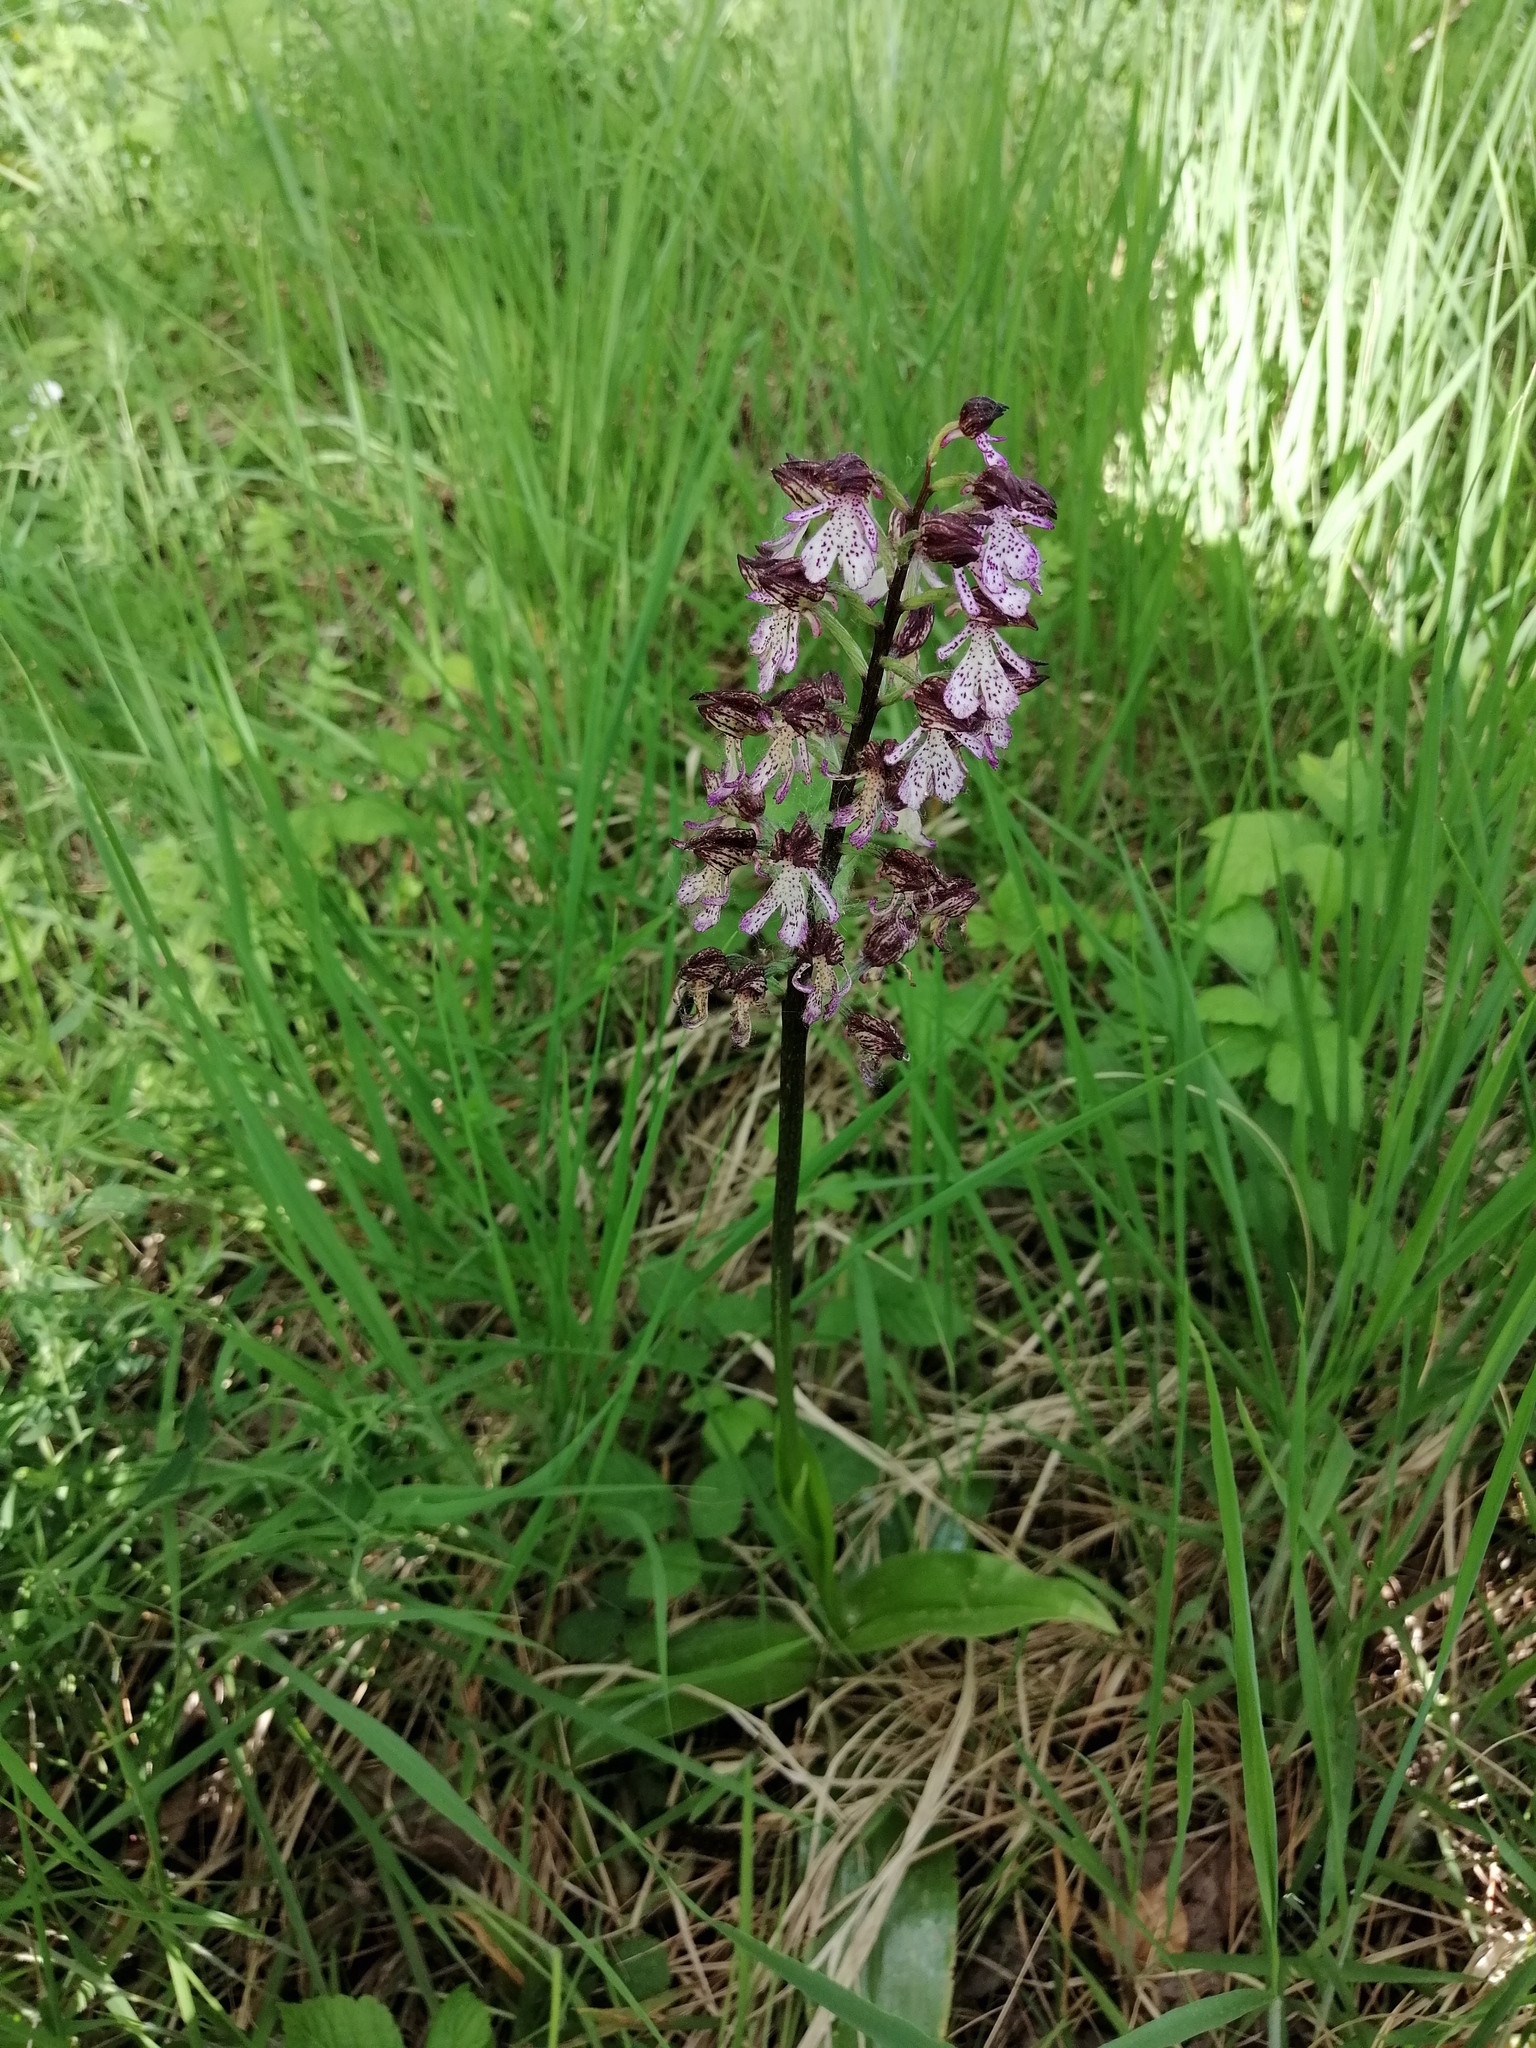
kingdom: Plantae
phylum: Tracheophyta
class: Liliopsida
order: Asparagales
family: Orchidaceae
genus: Orchis
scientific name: Orchis purpurea
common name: Lady orchid
